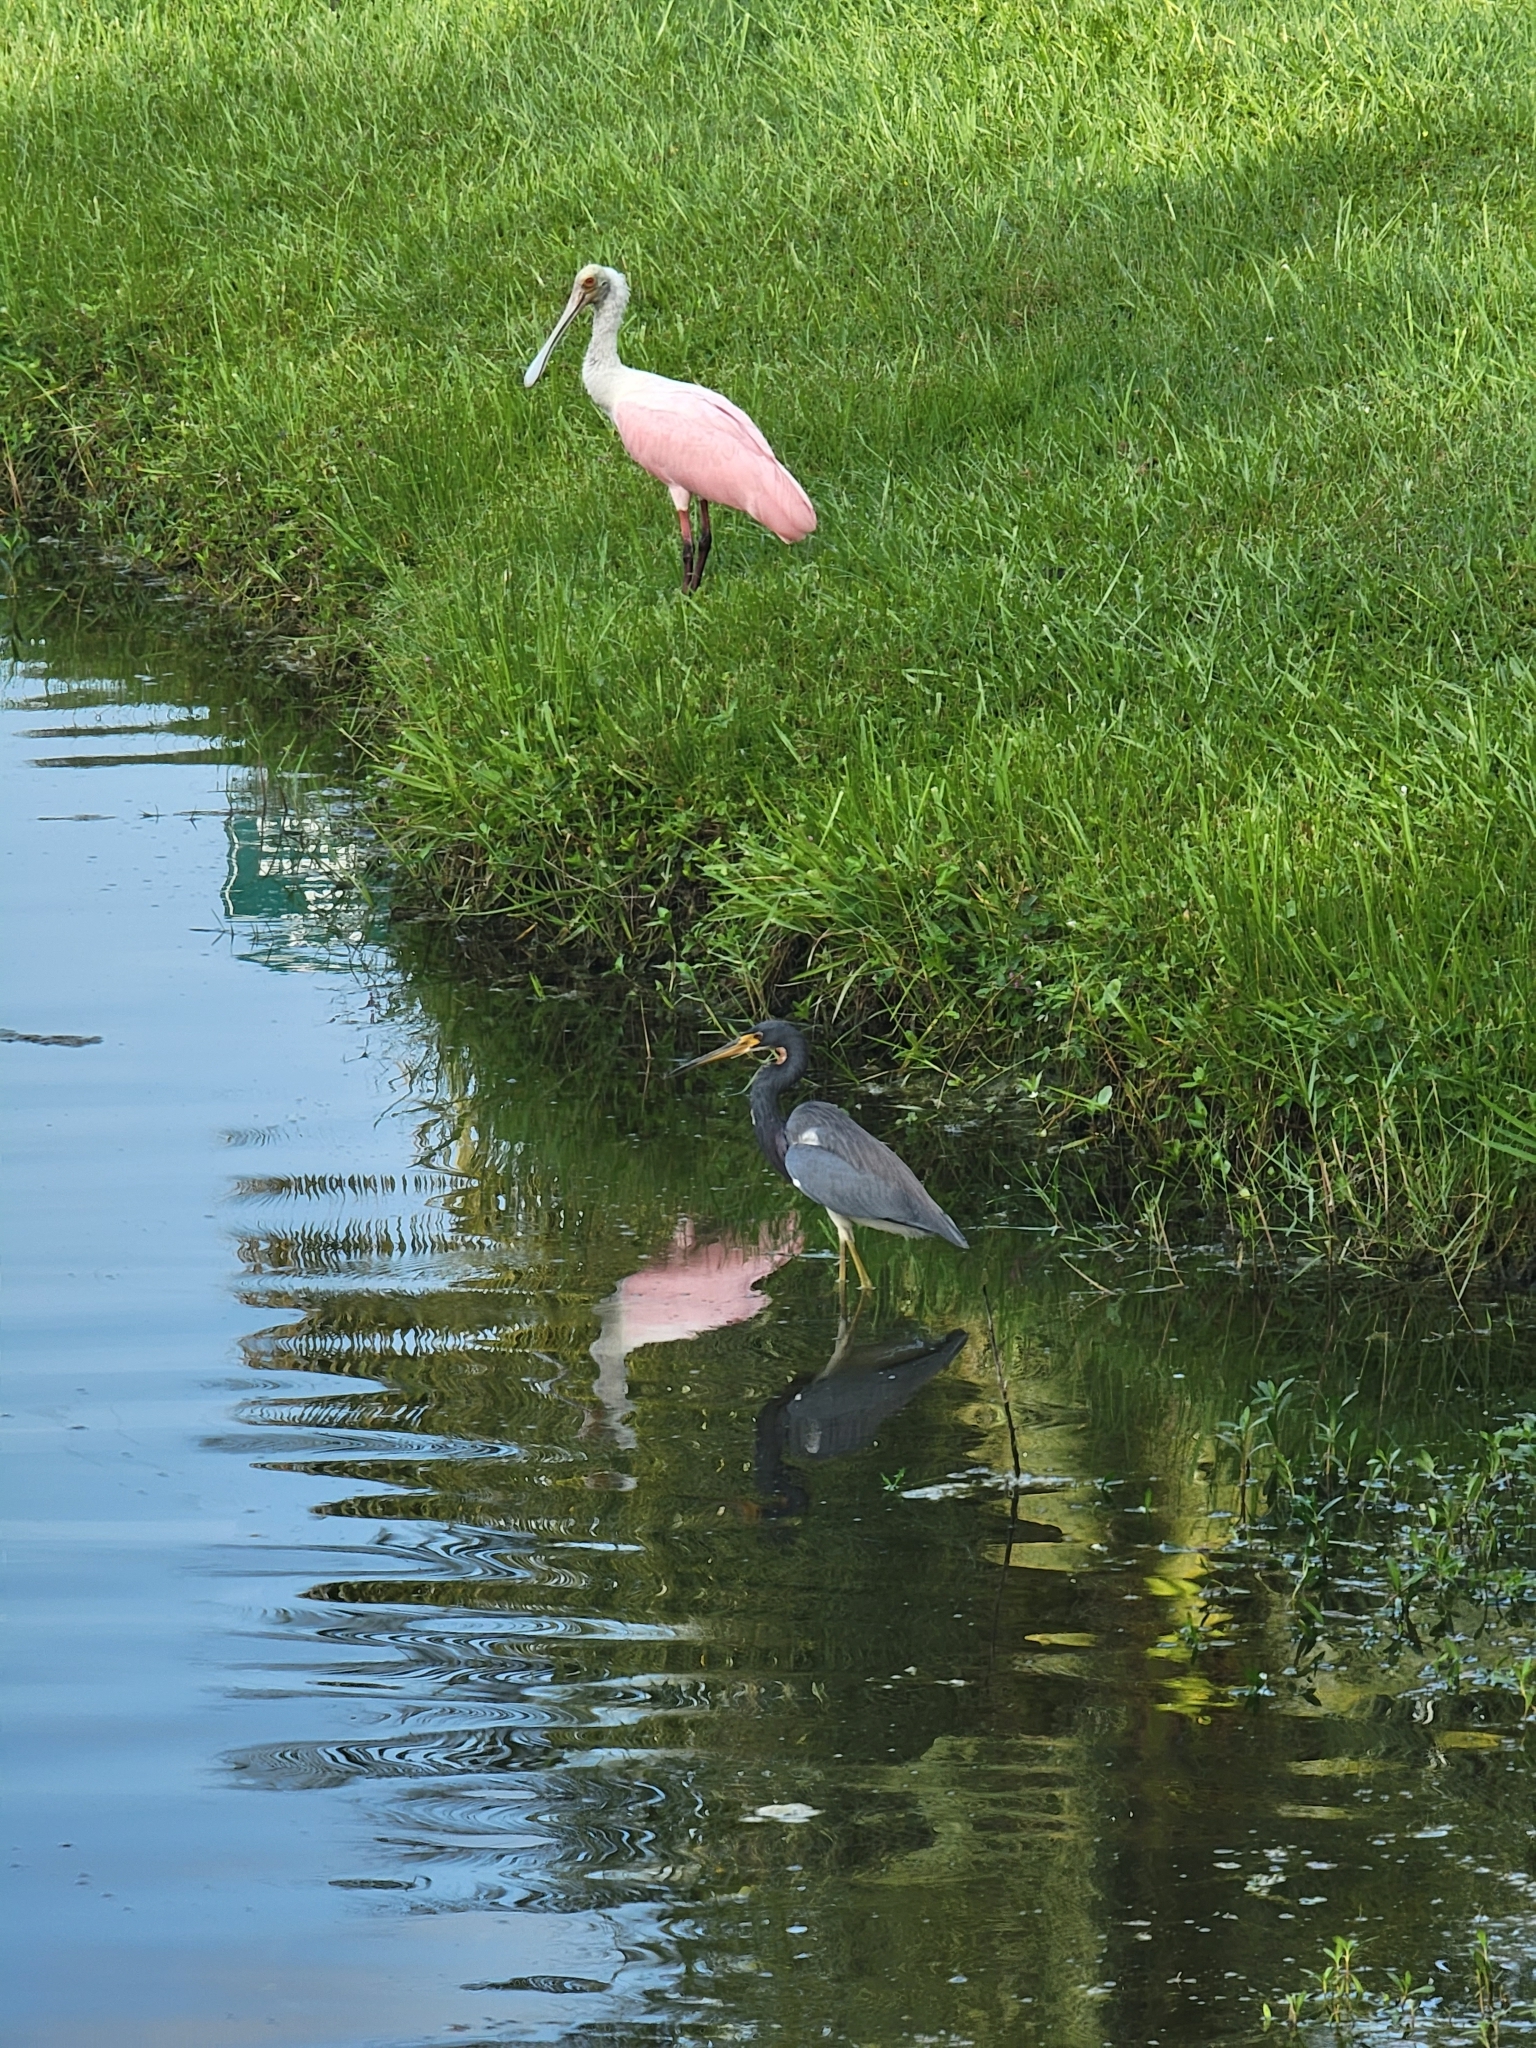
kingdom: Animalia
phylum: Chordata
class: Aves
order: Pelecaniformes
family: Ardeidae
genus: Egretta
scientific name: Egretta tricolor
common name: Tricolored heron
